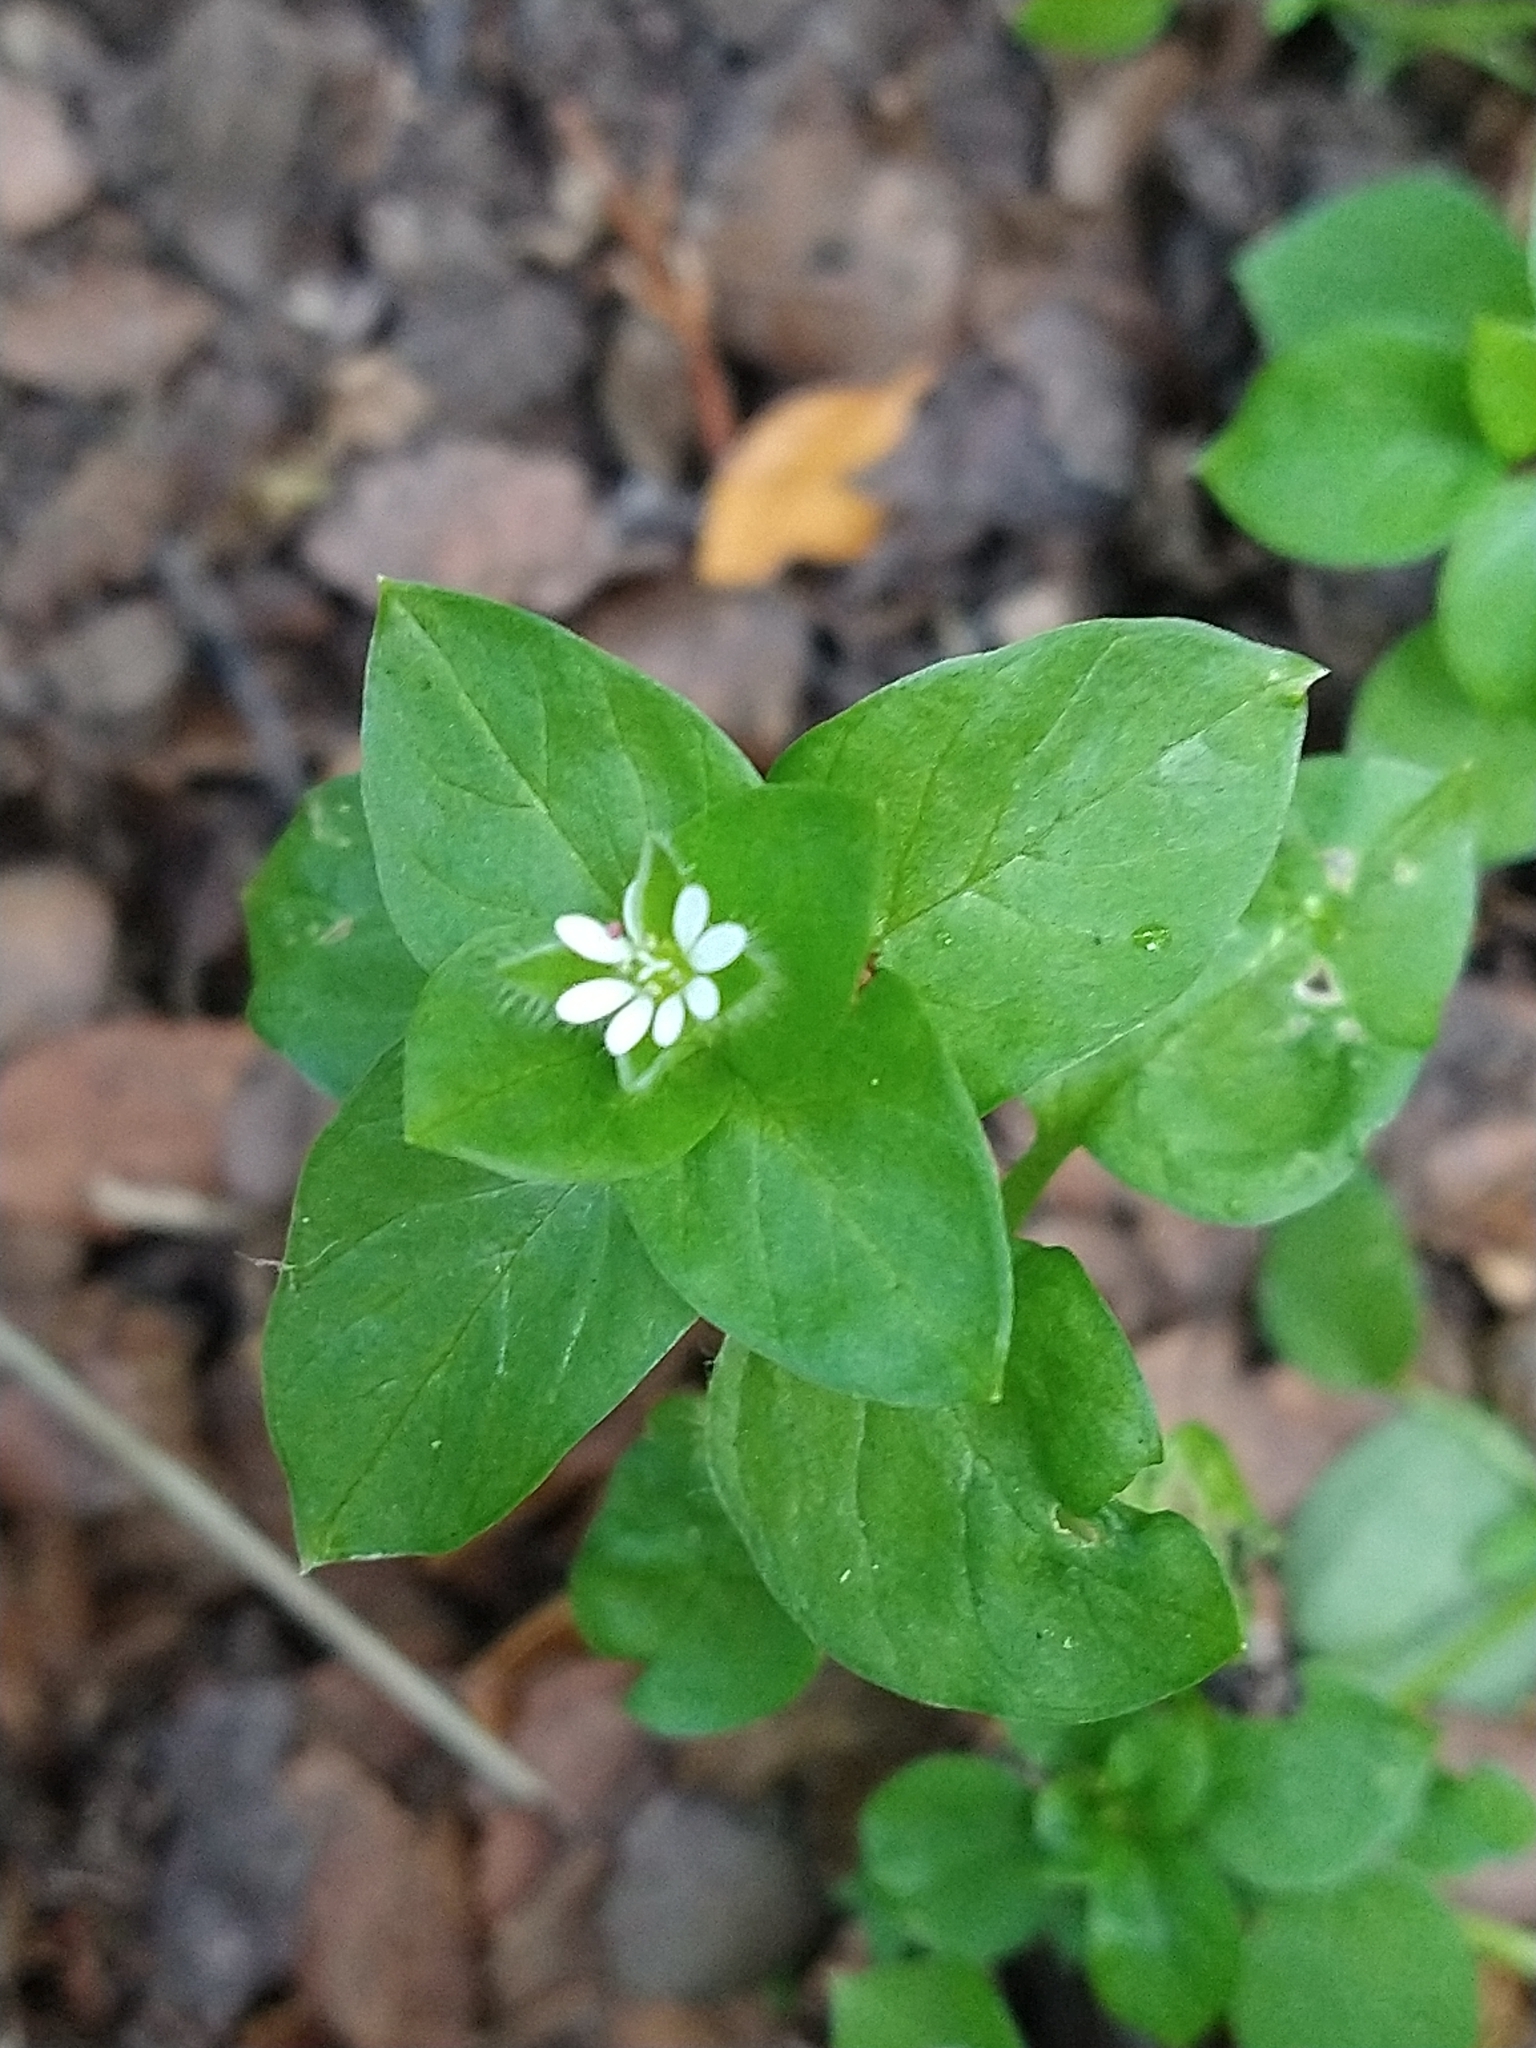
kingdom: Plantae
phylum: Tracheophyta
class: Magnoliopsida
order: Caryophyllales
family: Caryophyllaceae
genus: Stellaria
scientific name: Stellaria media
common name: Common chickweed
